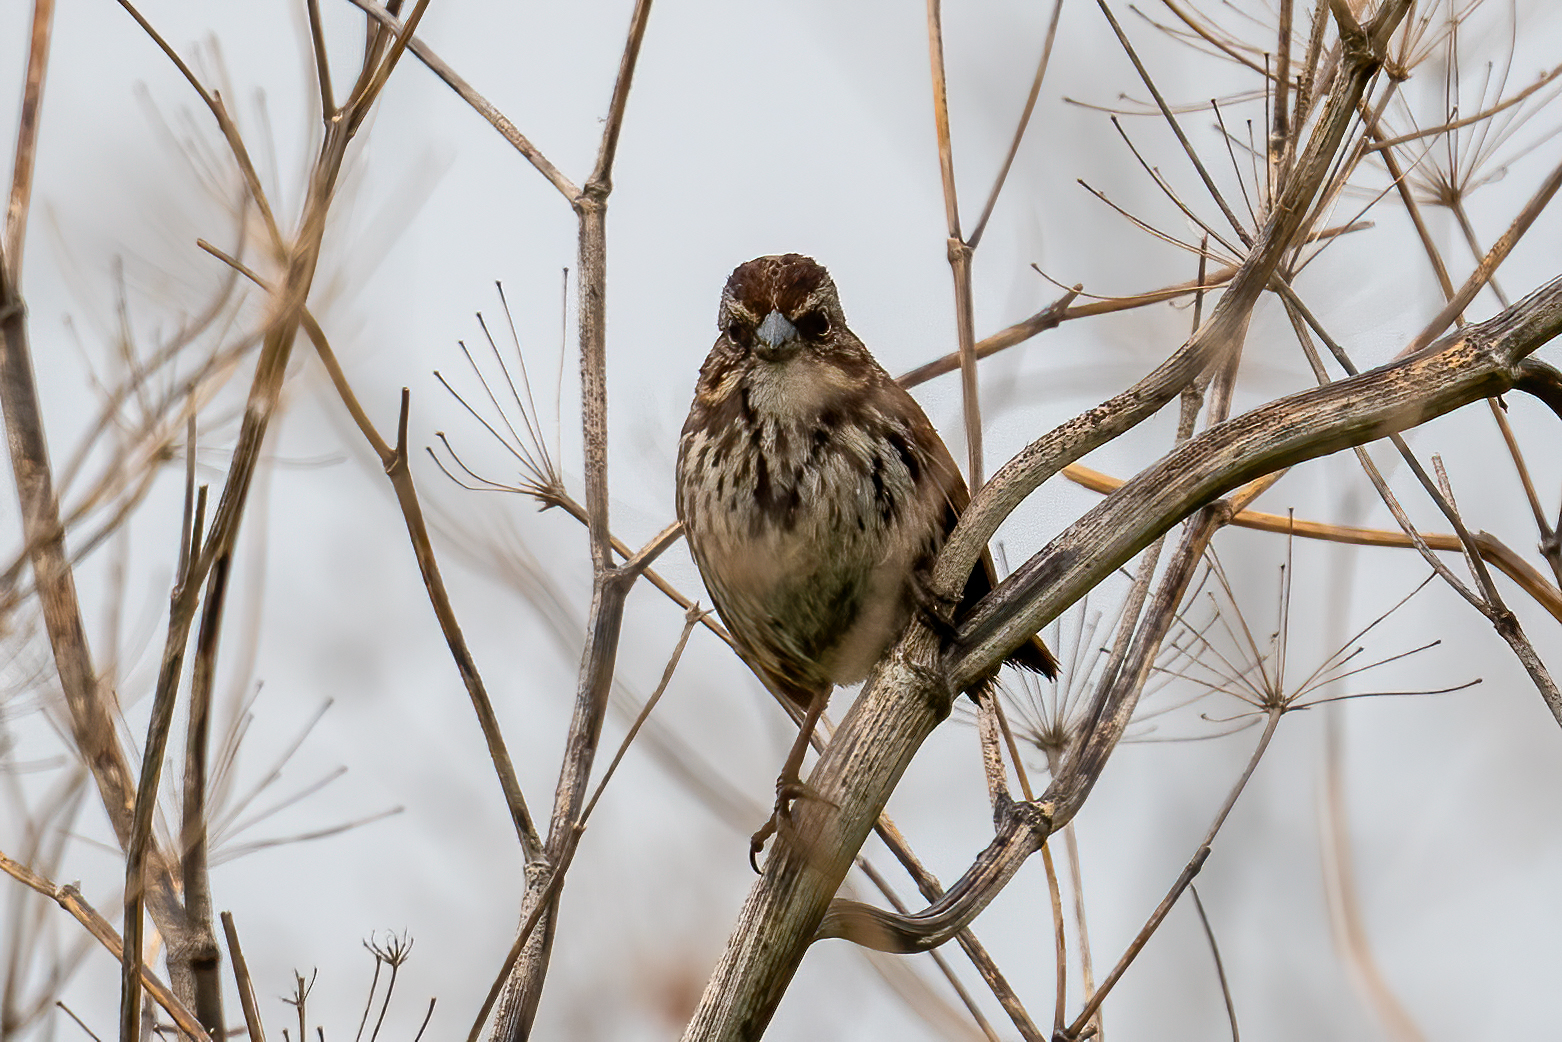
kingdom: Animalia
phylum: Chordata
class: Aves
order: Passeriformes
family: Passerellidae
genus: Melospiza
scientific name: Melospiza melodia
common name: Song sparrow
